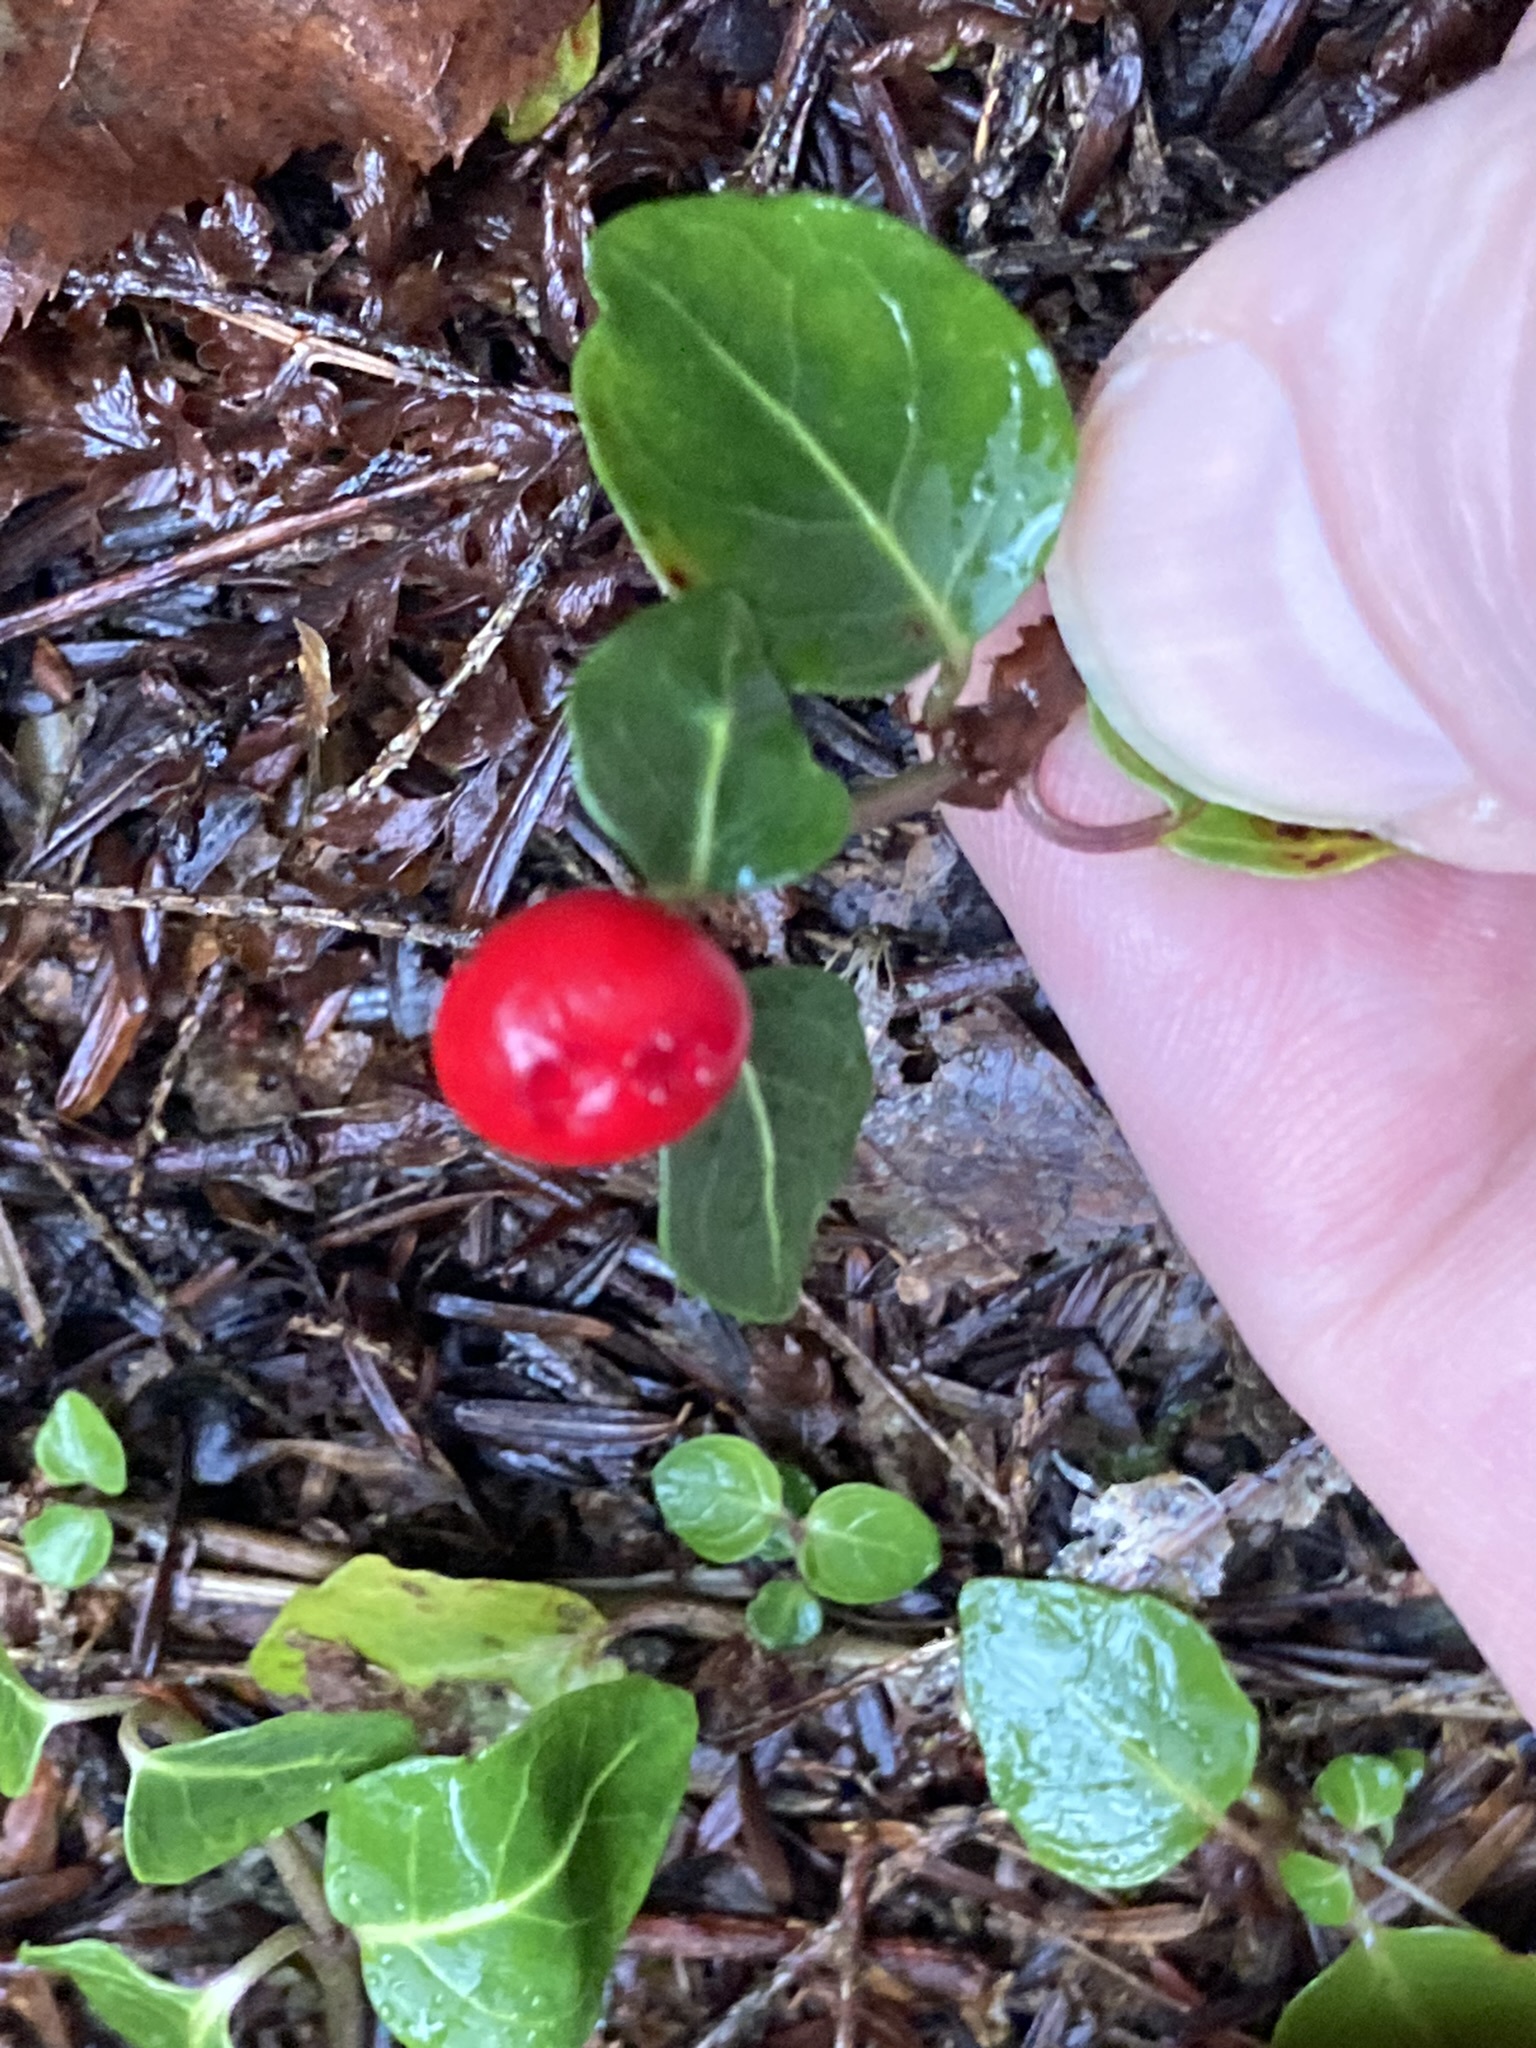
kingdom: Plantae
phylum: Tracheophyta
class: Magnoliopsida
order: Gentianales
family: Rubiaceae
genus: Mitchella
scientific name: Mitchella repens
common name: Partridge-berry
